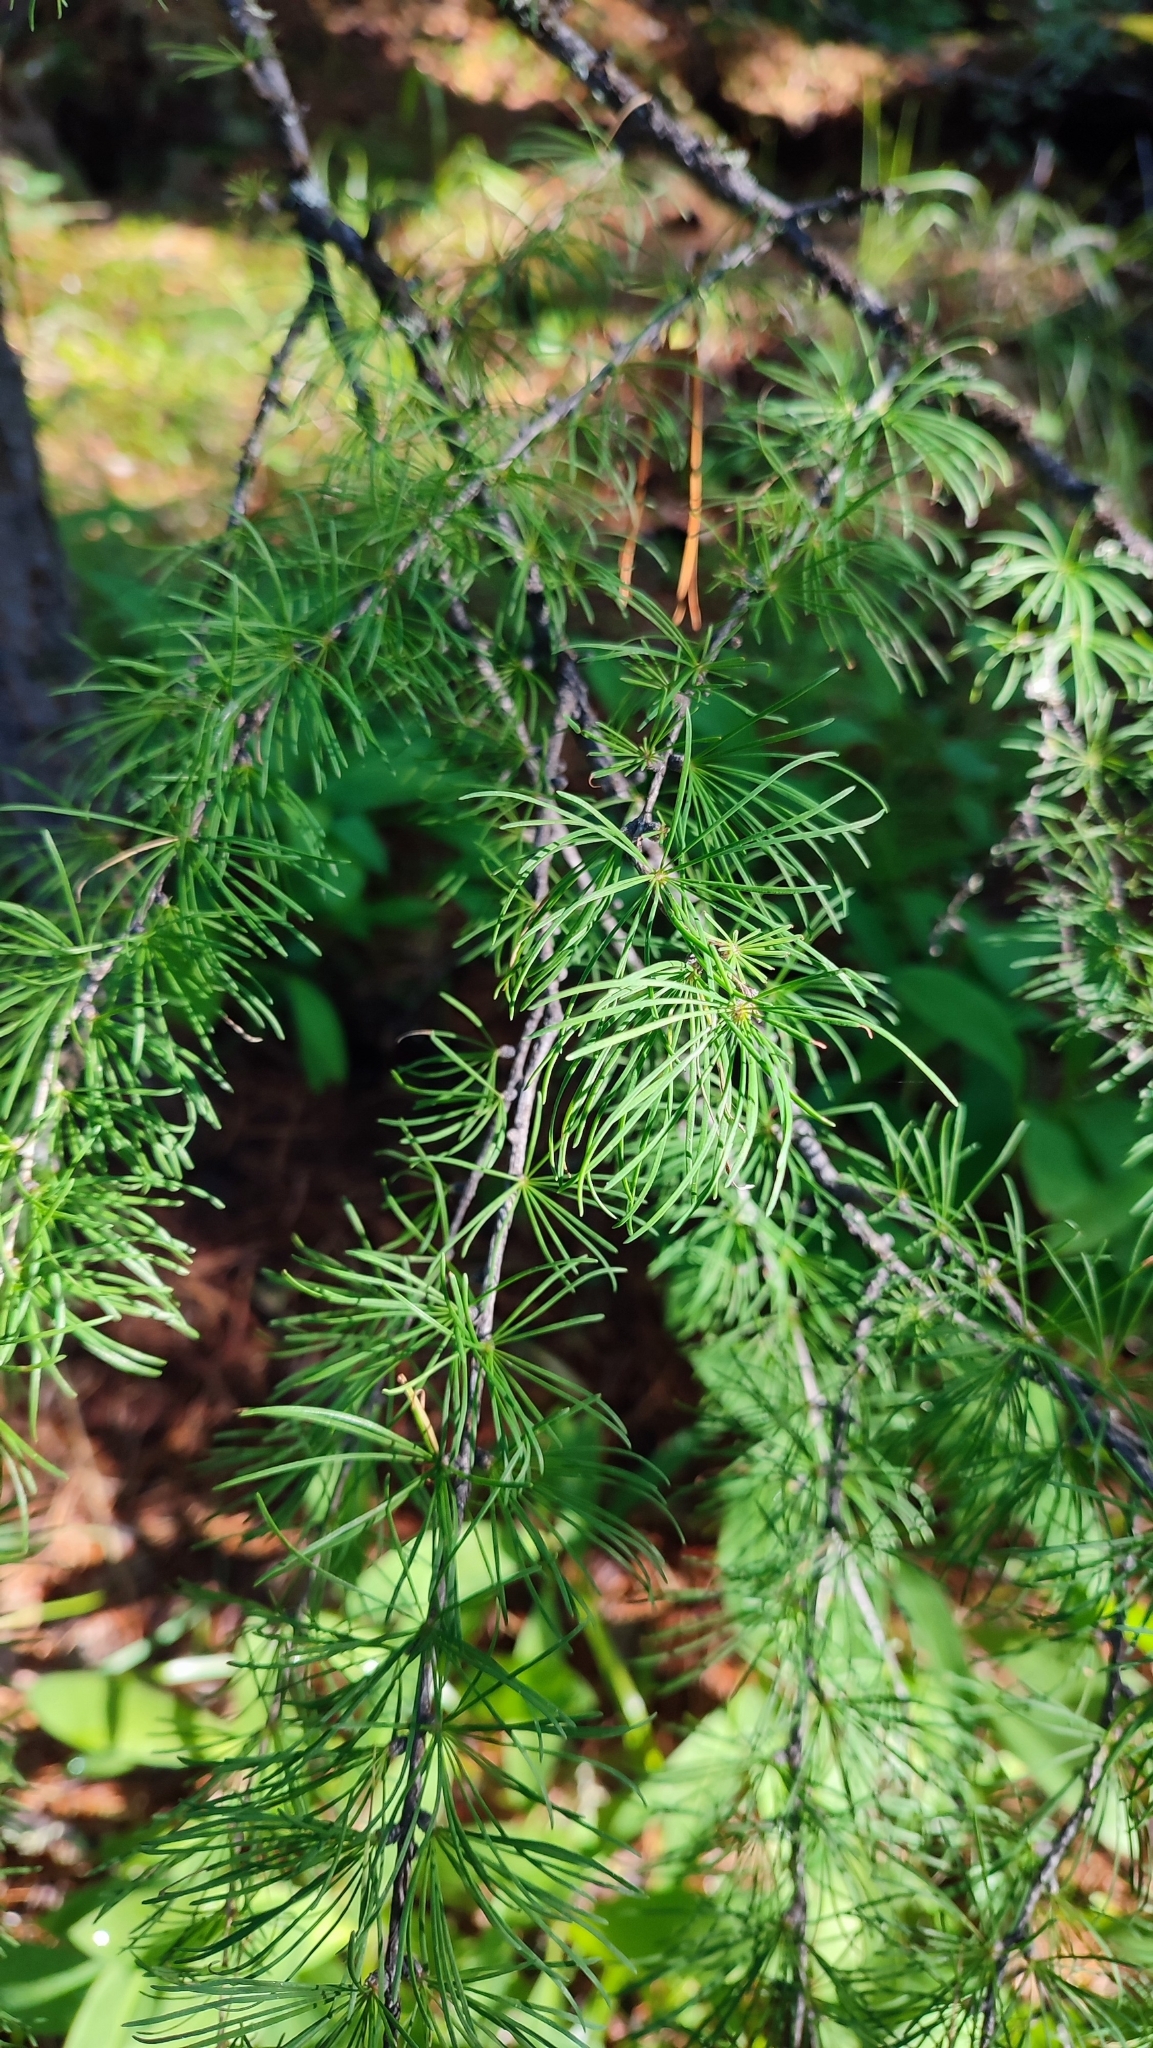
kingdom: Plantae
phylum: Tracheophyta
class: Pinopsida
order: Pinales
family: Pinaceae
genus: Larix
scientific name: Larix sibirica
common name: Siberian larch
